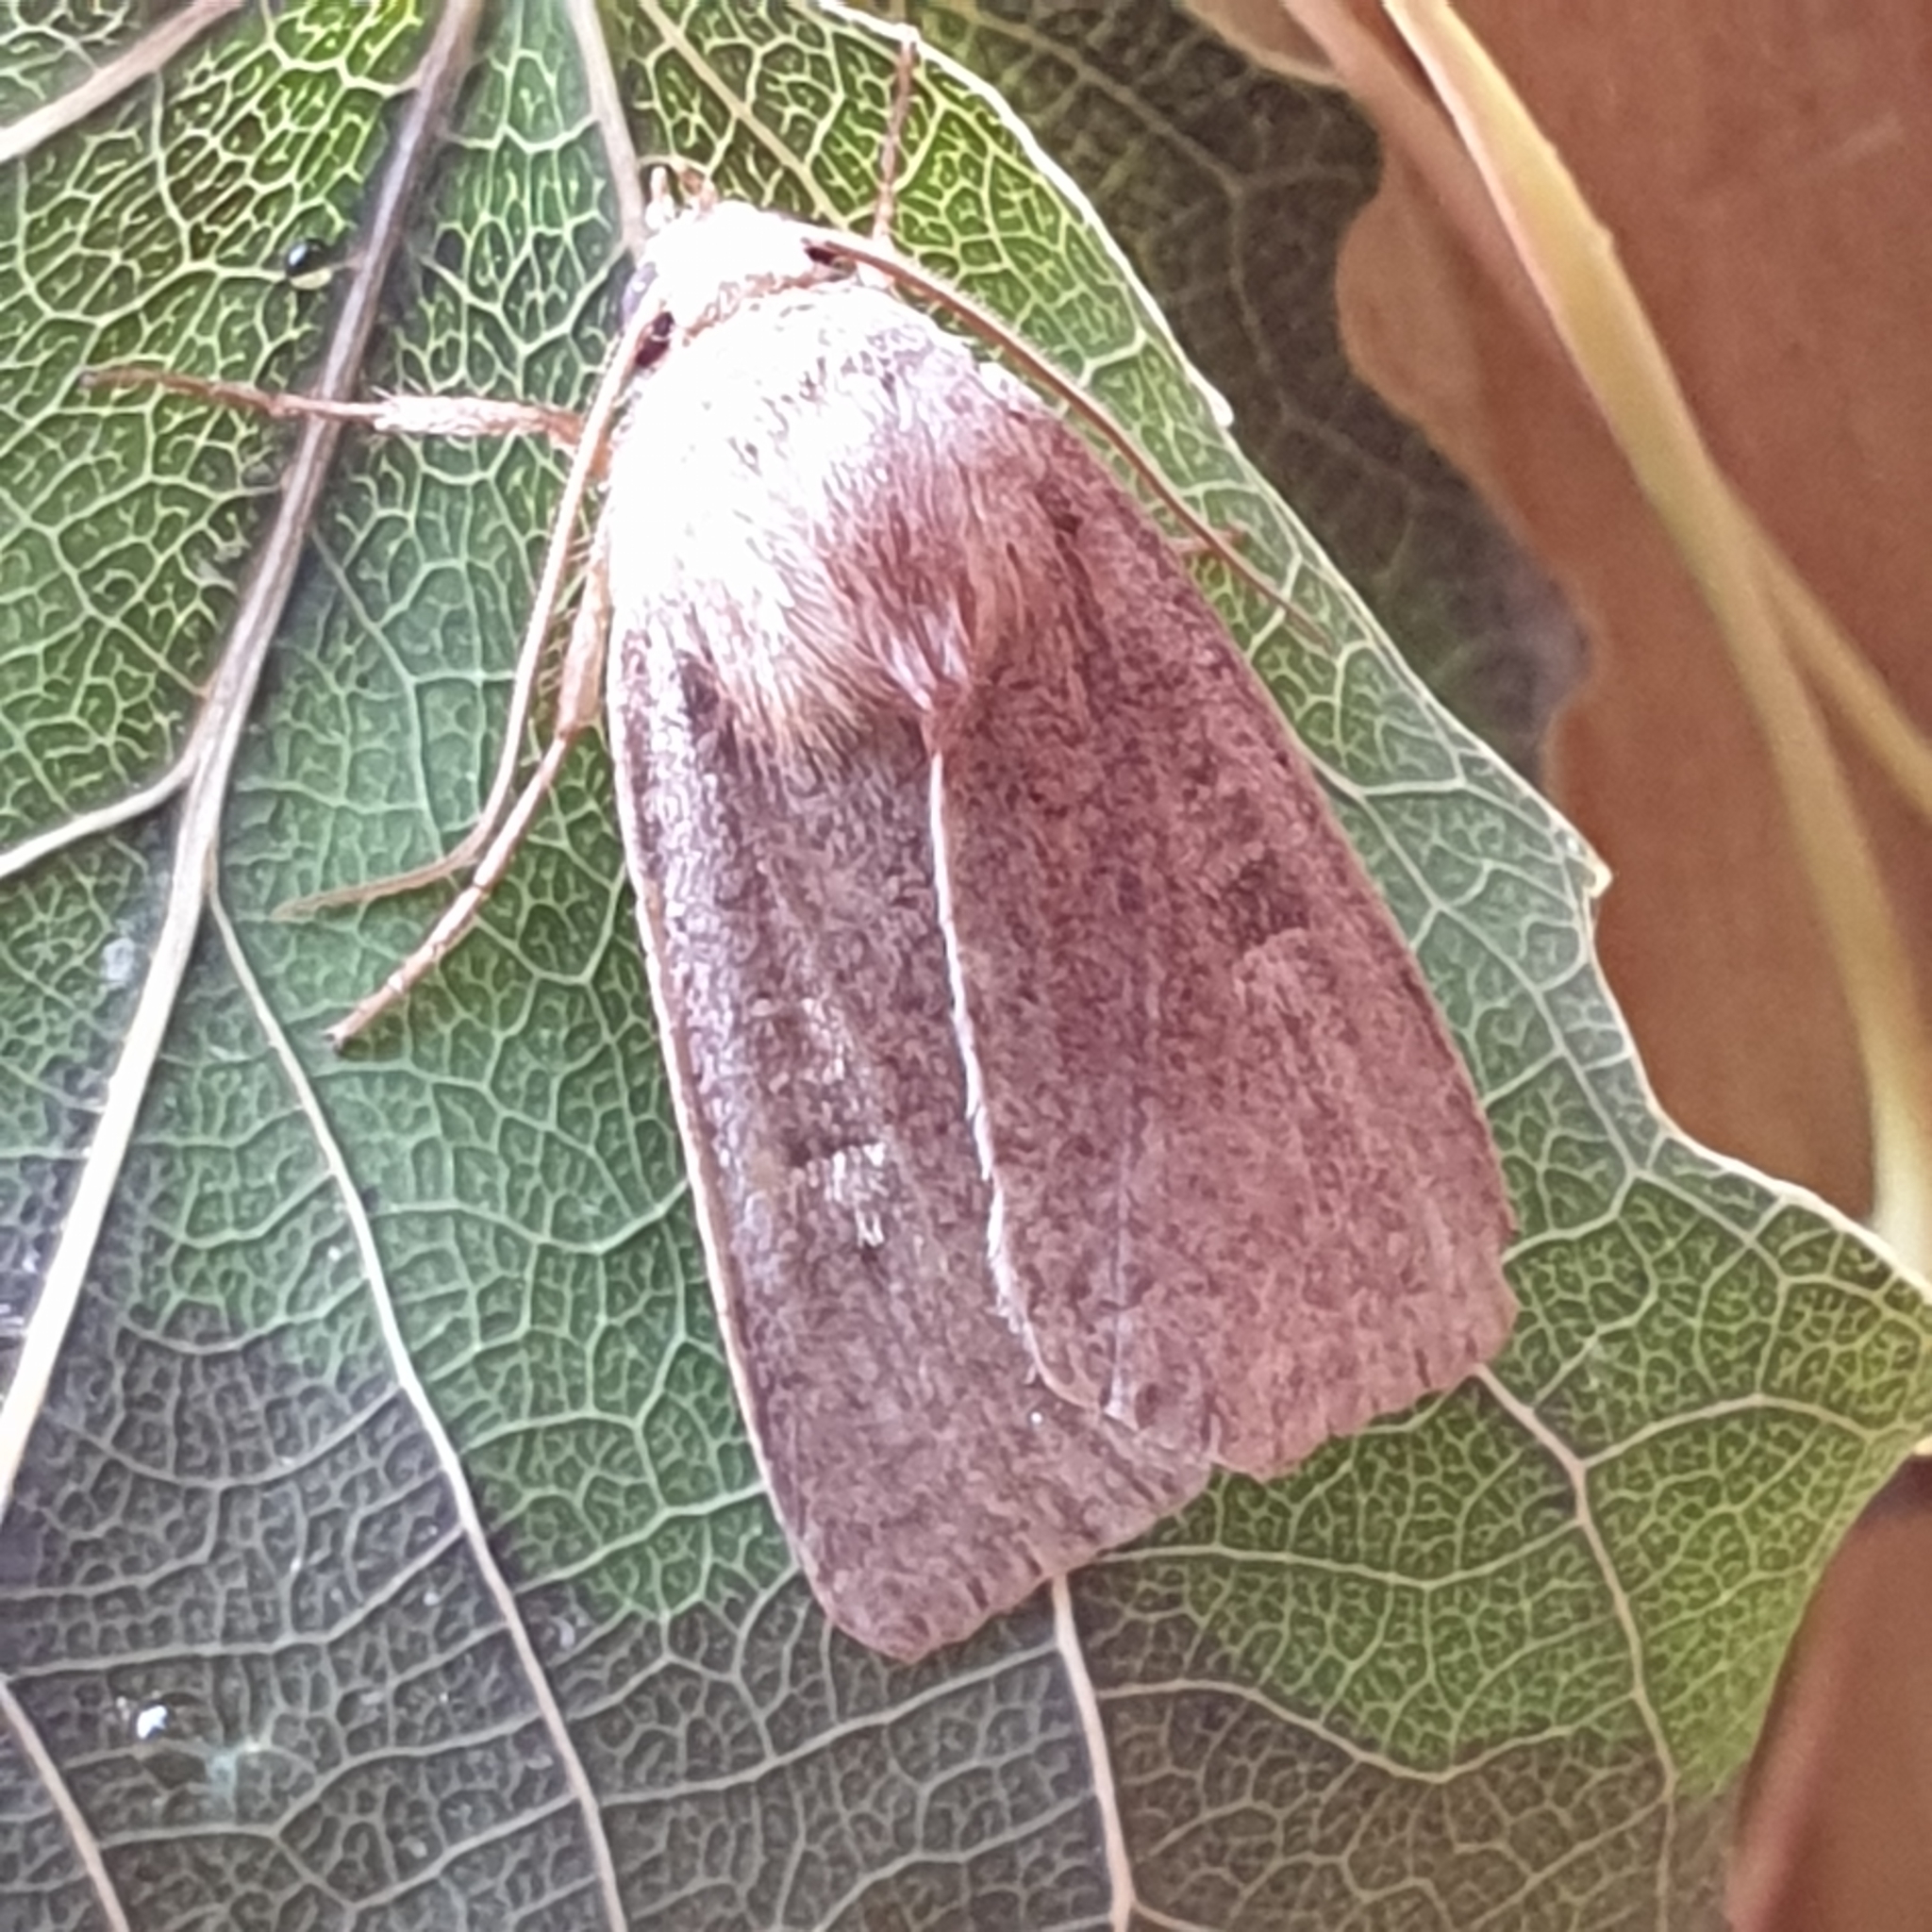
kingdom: Animalia
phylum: Arthropoda
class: Insecta
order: Lepidoptera
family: Noctuidae
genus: Xestia
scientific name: Xestia xanthographa
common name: Square-spot rustic
